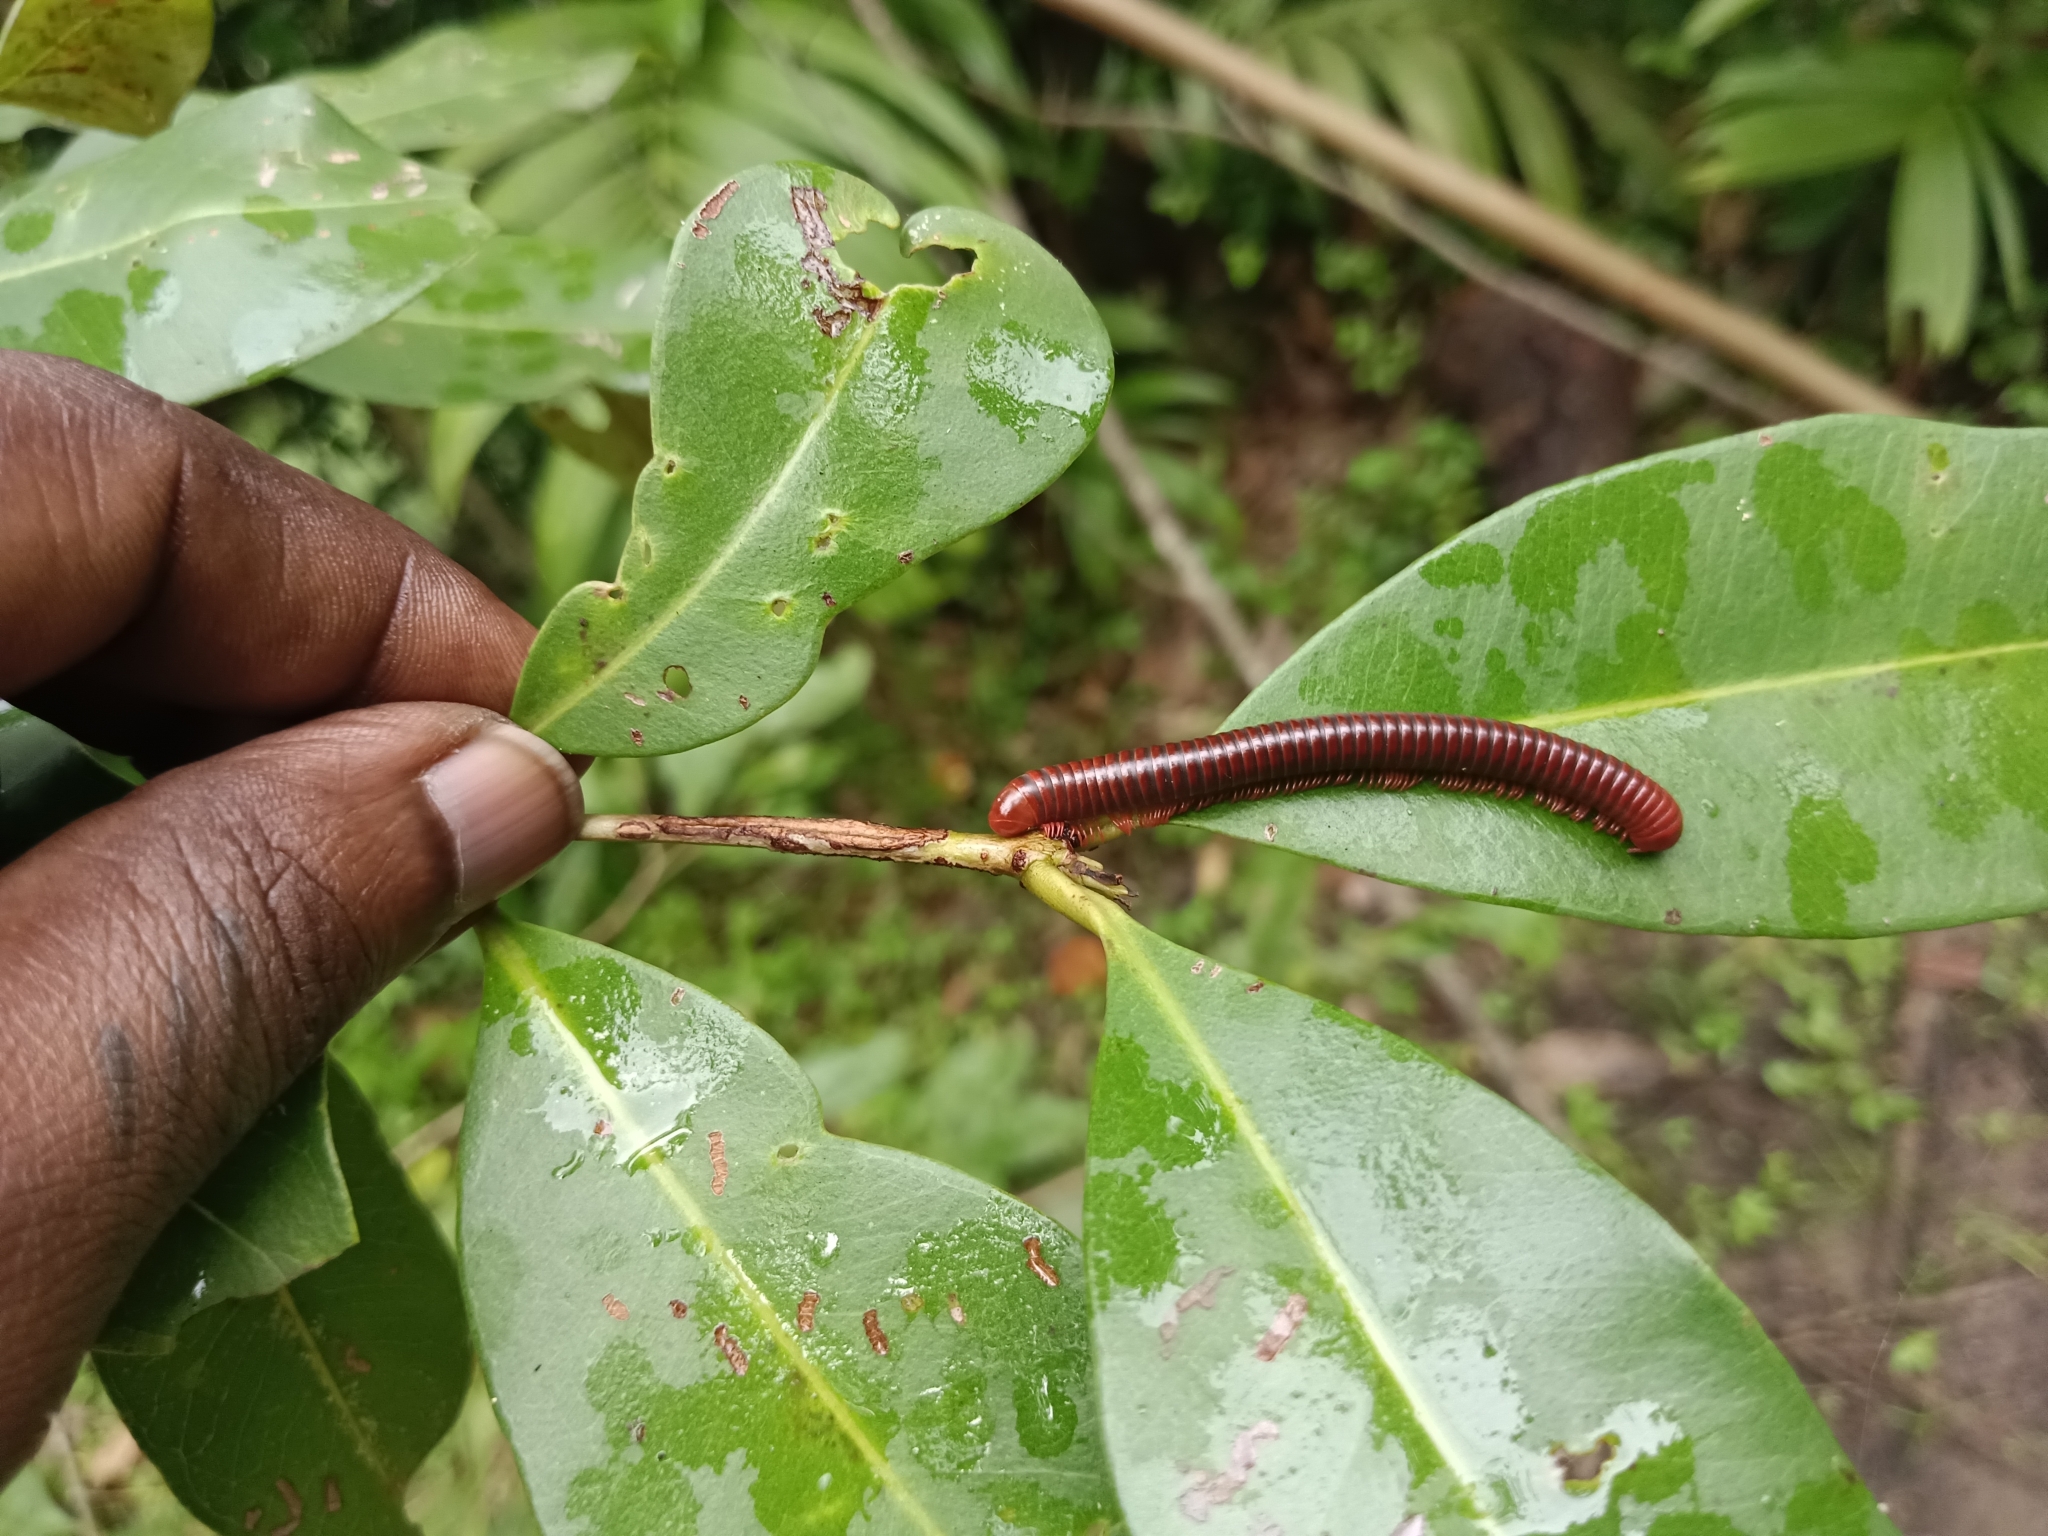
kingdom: Animalia
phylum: Arthropoda
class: Diplopoda
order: Spirobolida
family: Pachybolidae
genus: Trigoniulus
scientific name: Trigoniulus corallinus
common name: Millipede
